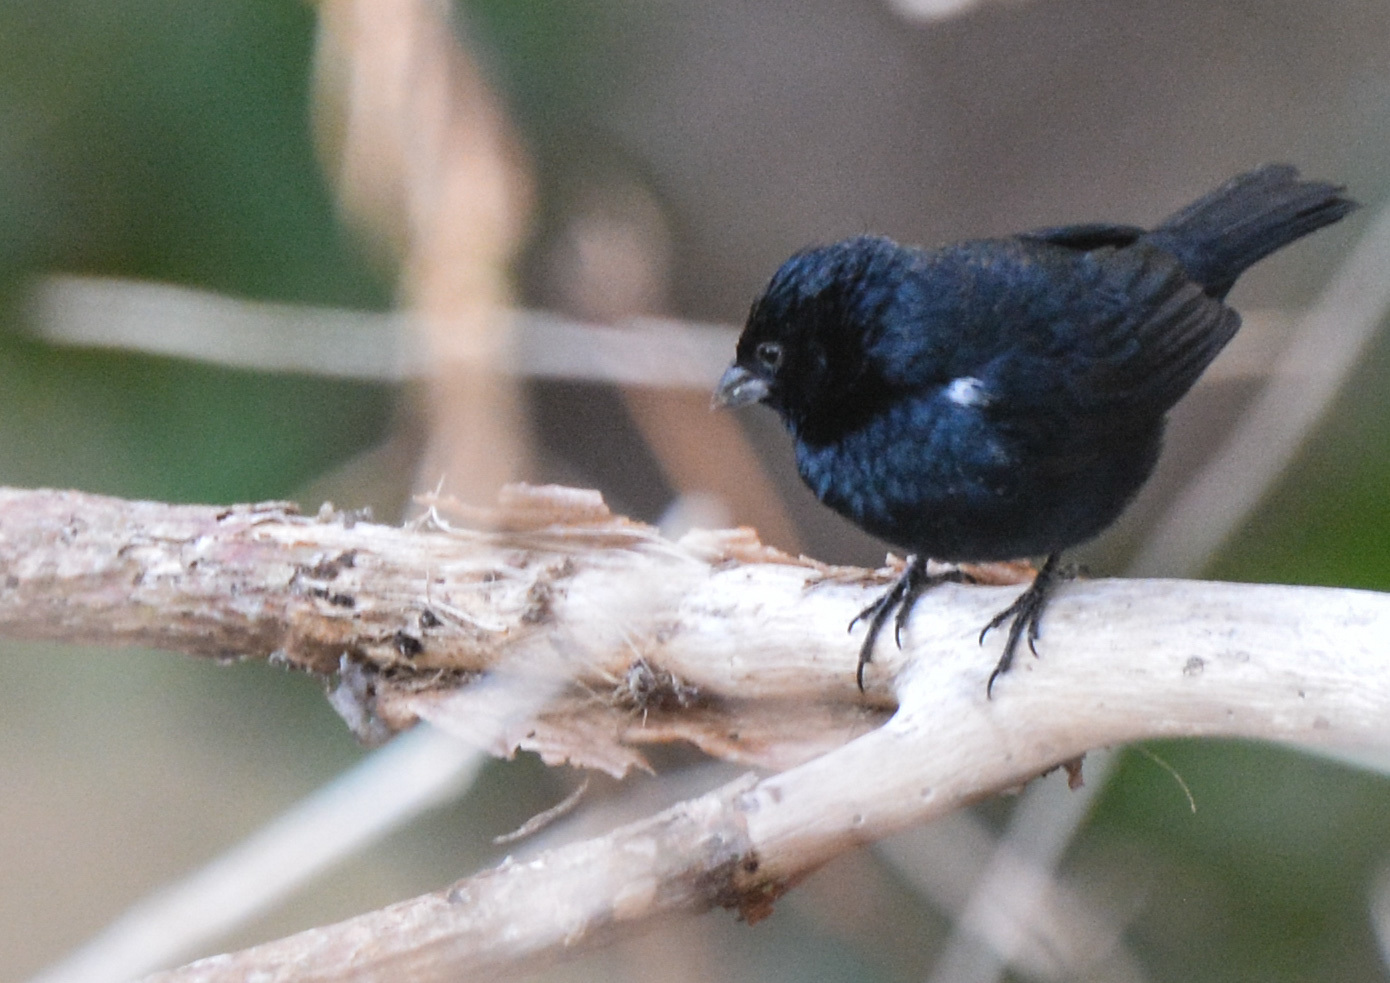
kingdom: Animalia
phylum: Chordata
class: Aves
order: Passeriformes
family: Thraupidae
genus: Tachyphonus
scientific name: Tachyphonus rufus
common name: White-lined tanager
